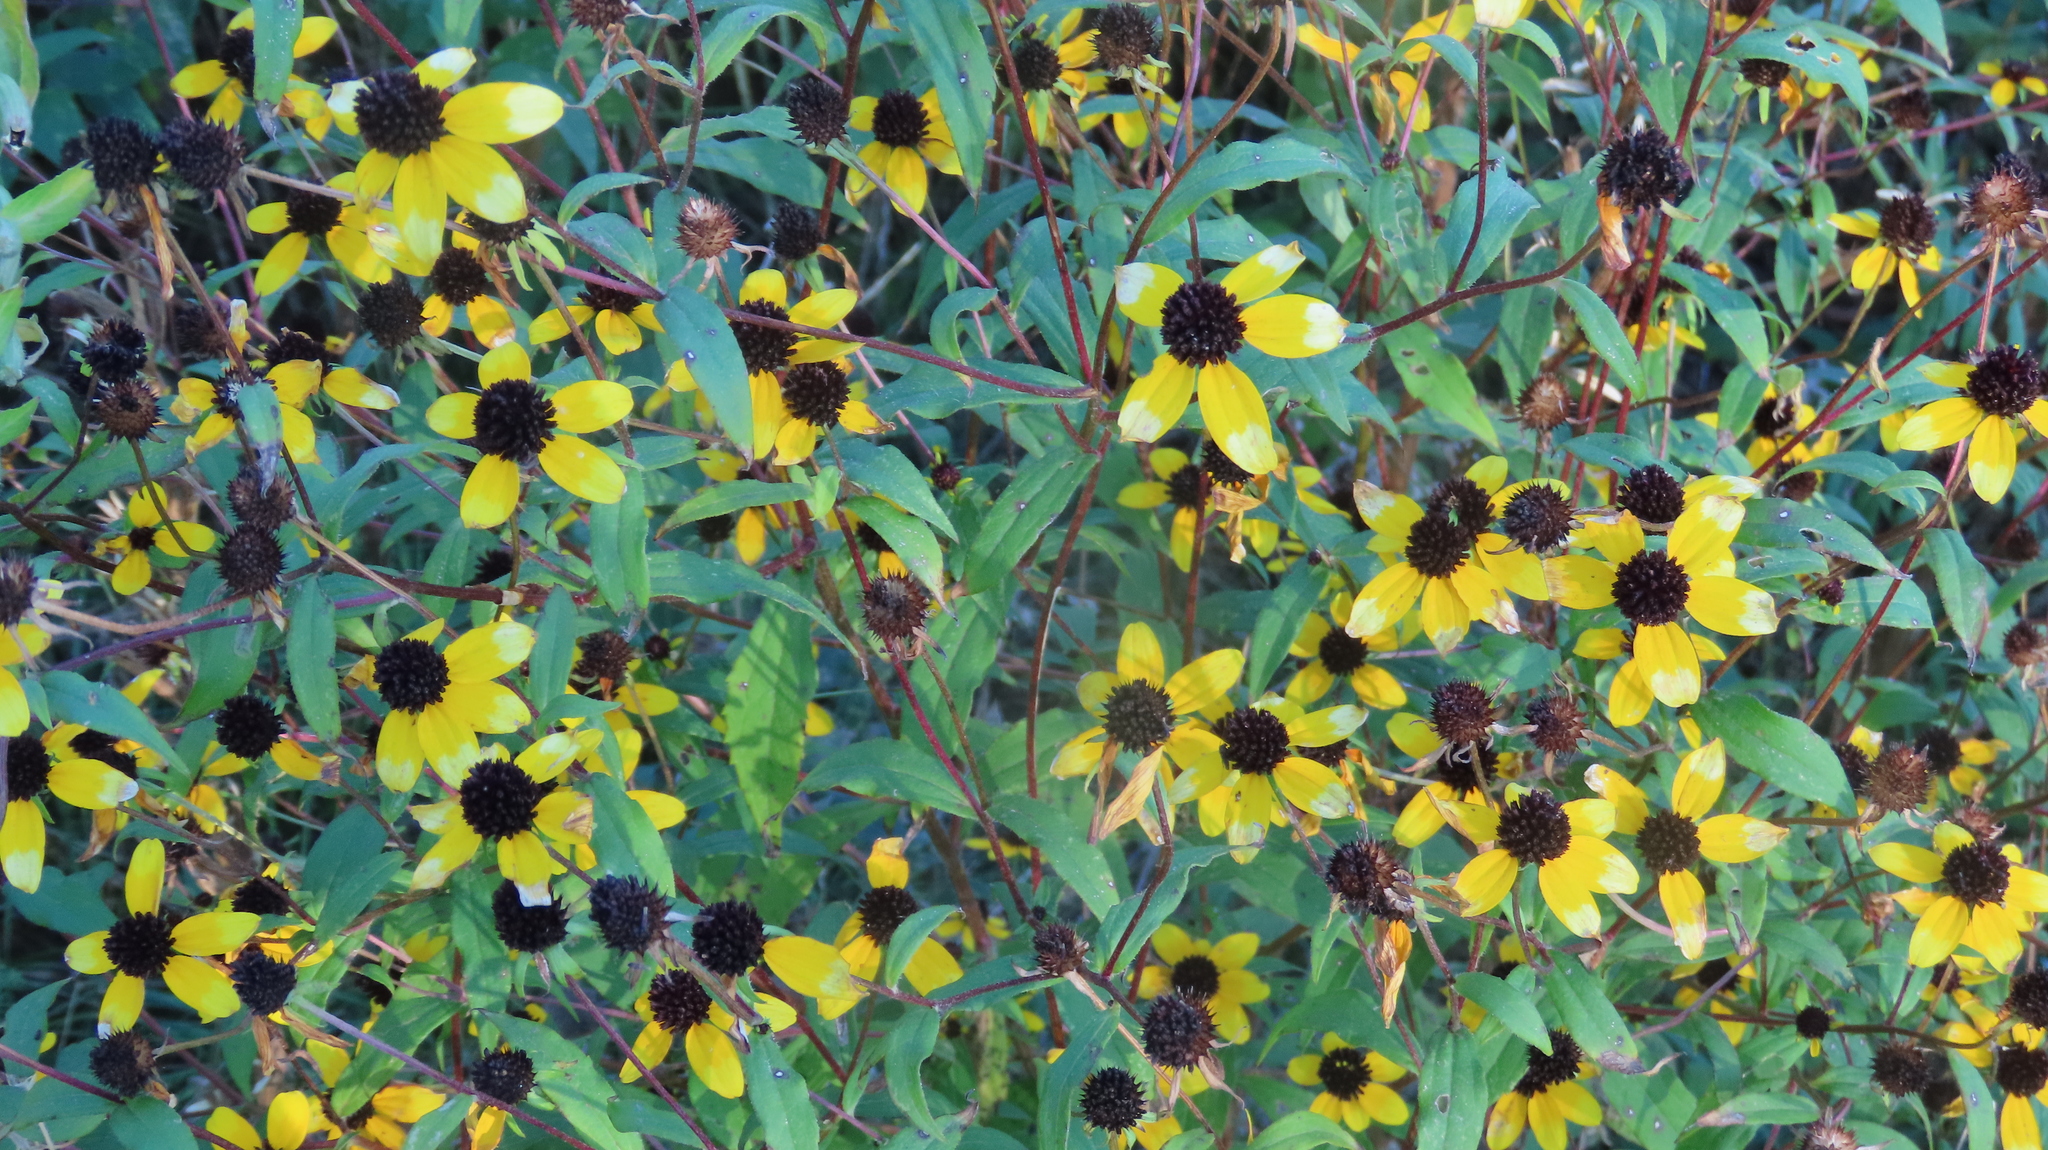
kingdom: Plantae
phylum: Tracheophyta
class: Magnoliopsida
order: Asterales
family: Asteraceae
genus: Rudbeckia
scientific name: Rudbeckia triloba
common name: Thin-leaved coneflower
